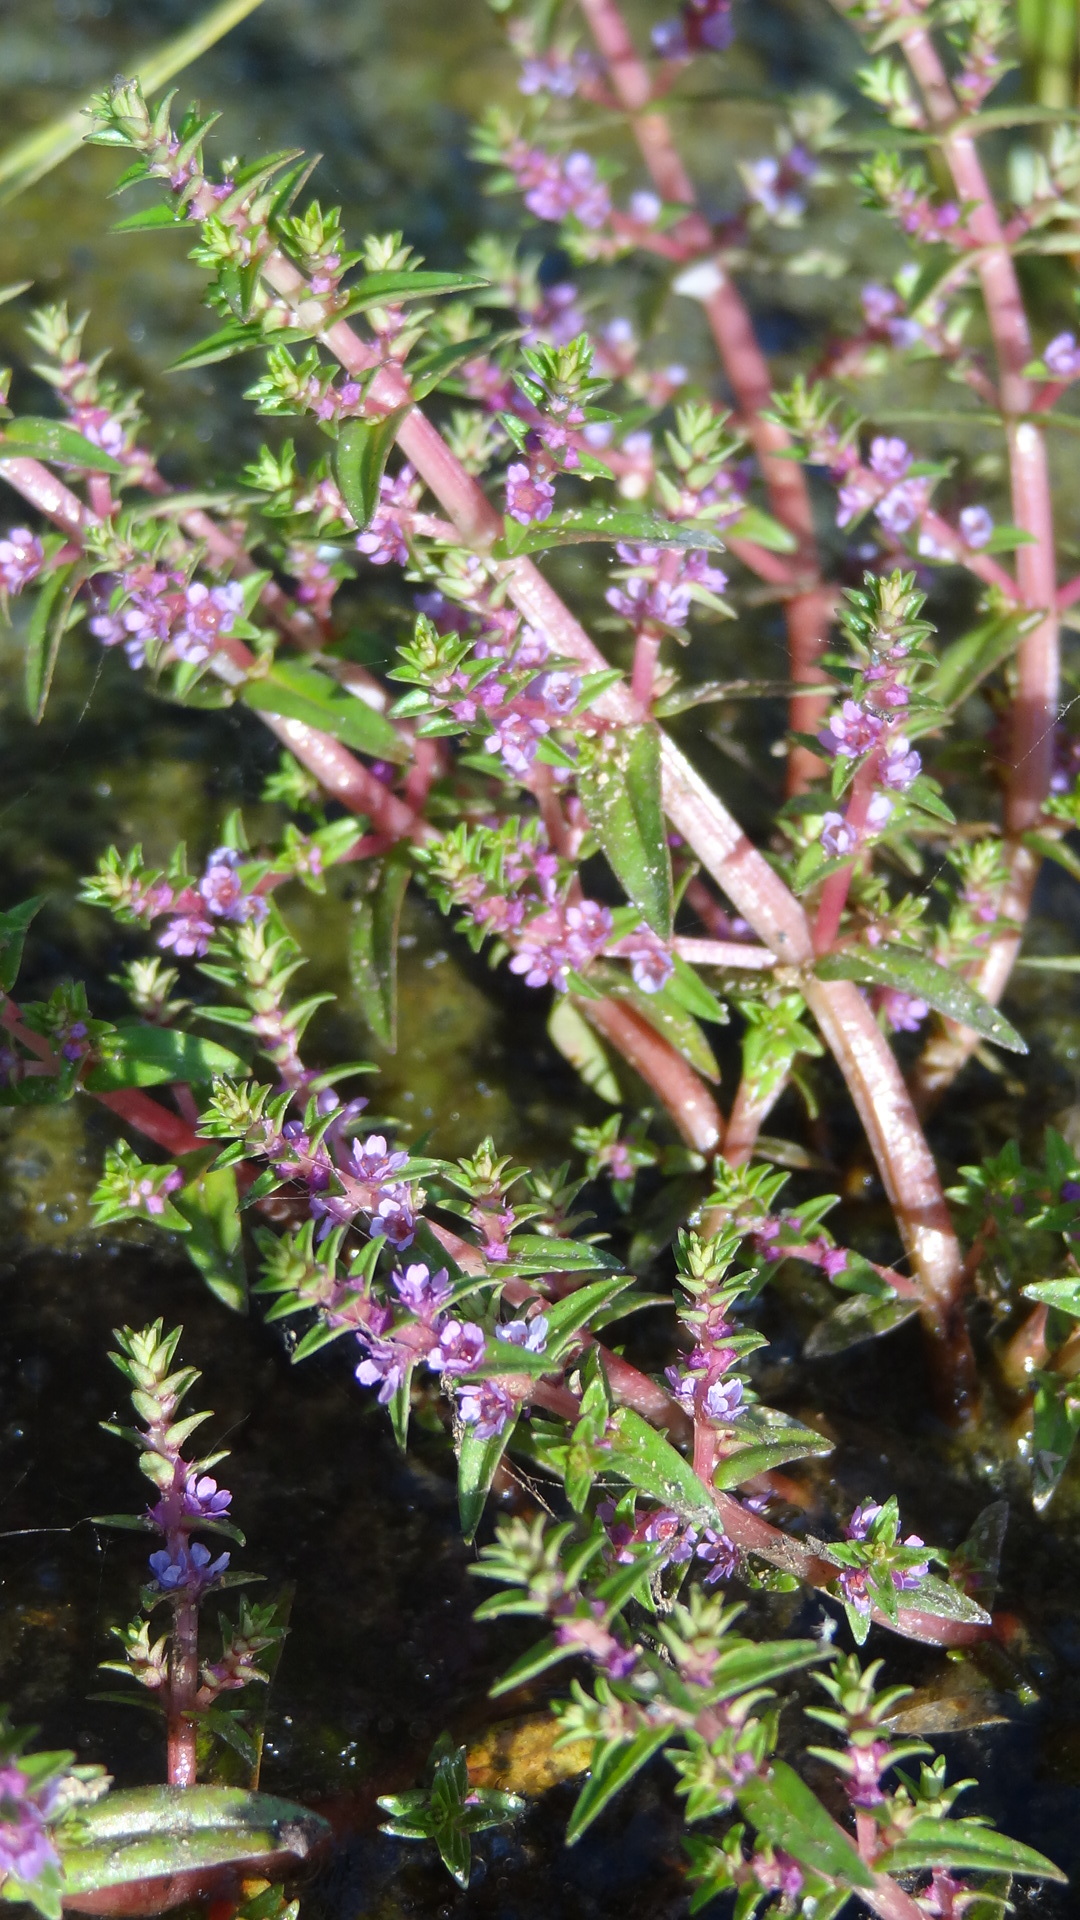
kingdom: Plantae
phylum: Tracheophyta
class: Magnoliopsida
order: Myrtales
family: Lythraceae
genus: Rotala
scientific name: Rotala rosea
